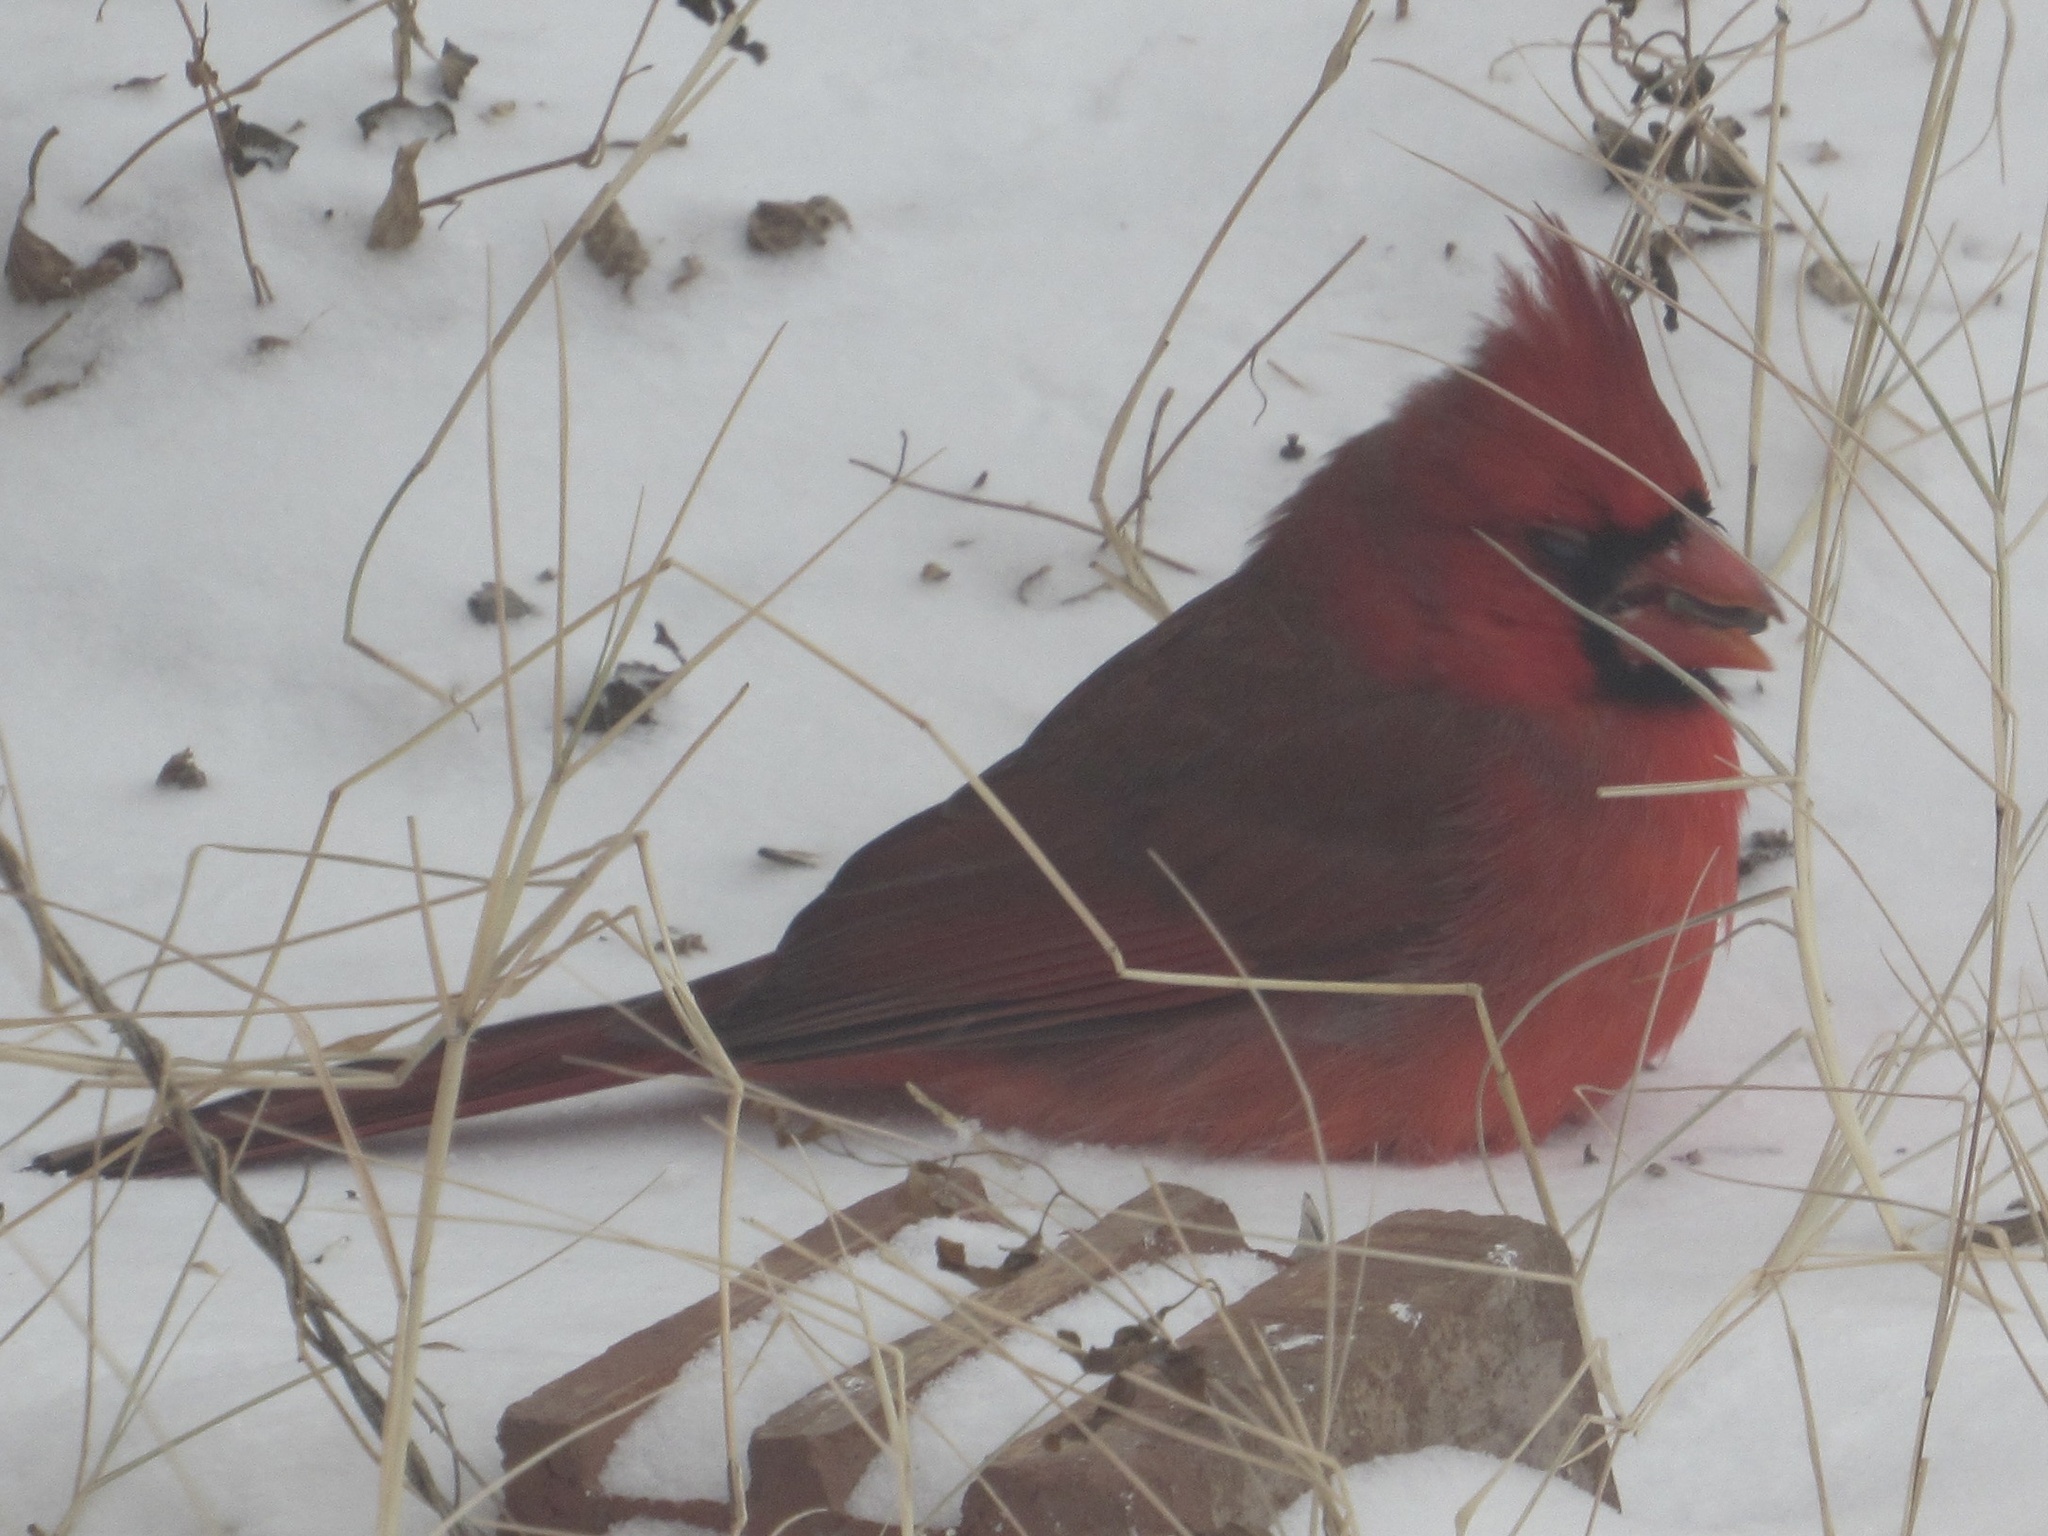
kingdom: Animalia
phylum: Chordata
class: Aves
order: Passeriformes
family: Cardinalidae
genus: Cardinalis
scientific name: Cardinalis cardinalis
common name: Northern cardinal
